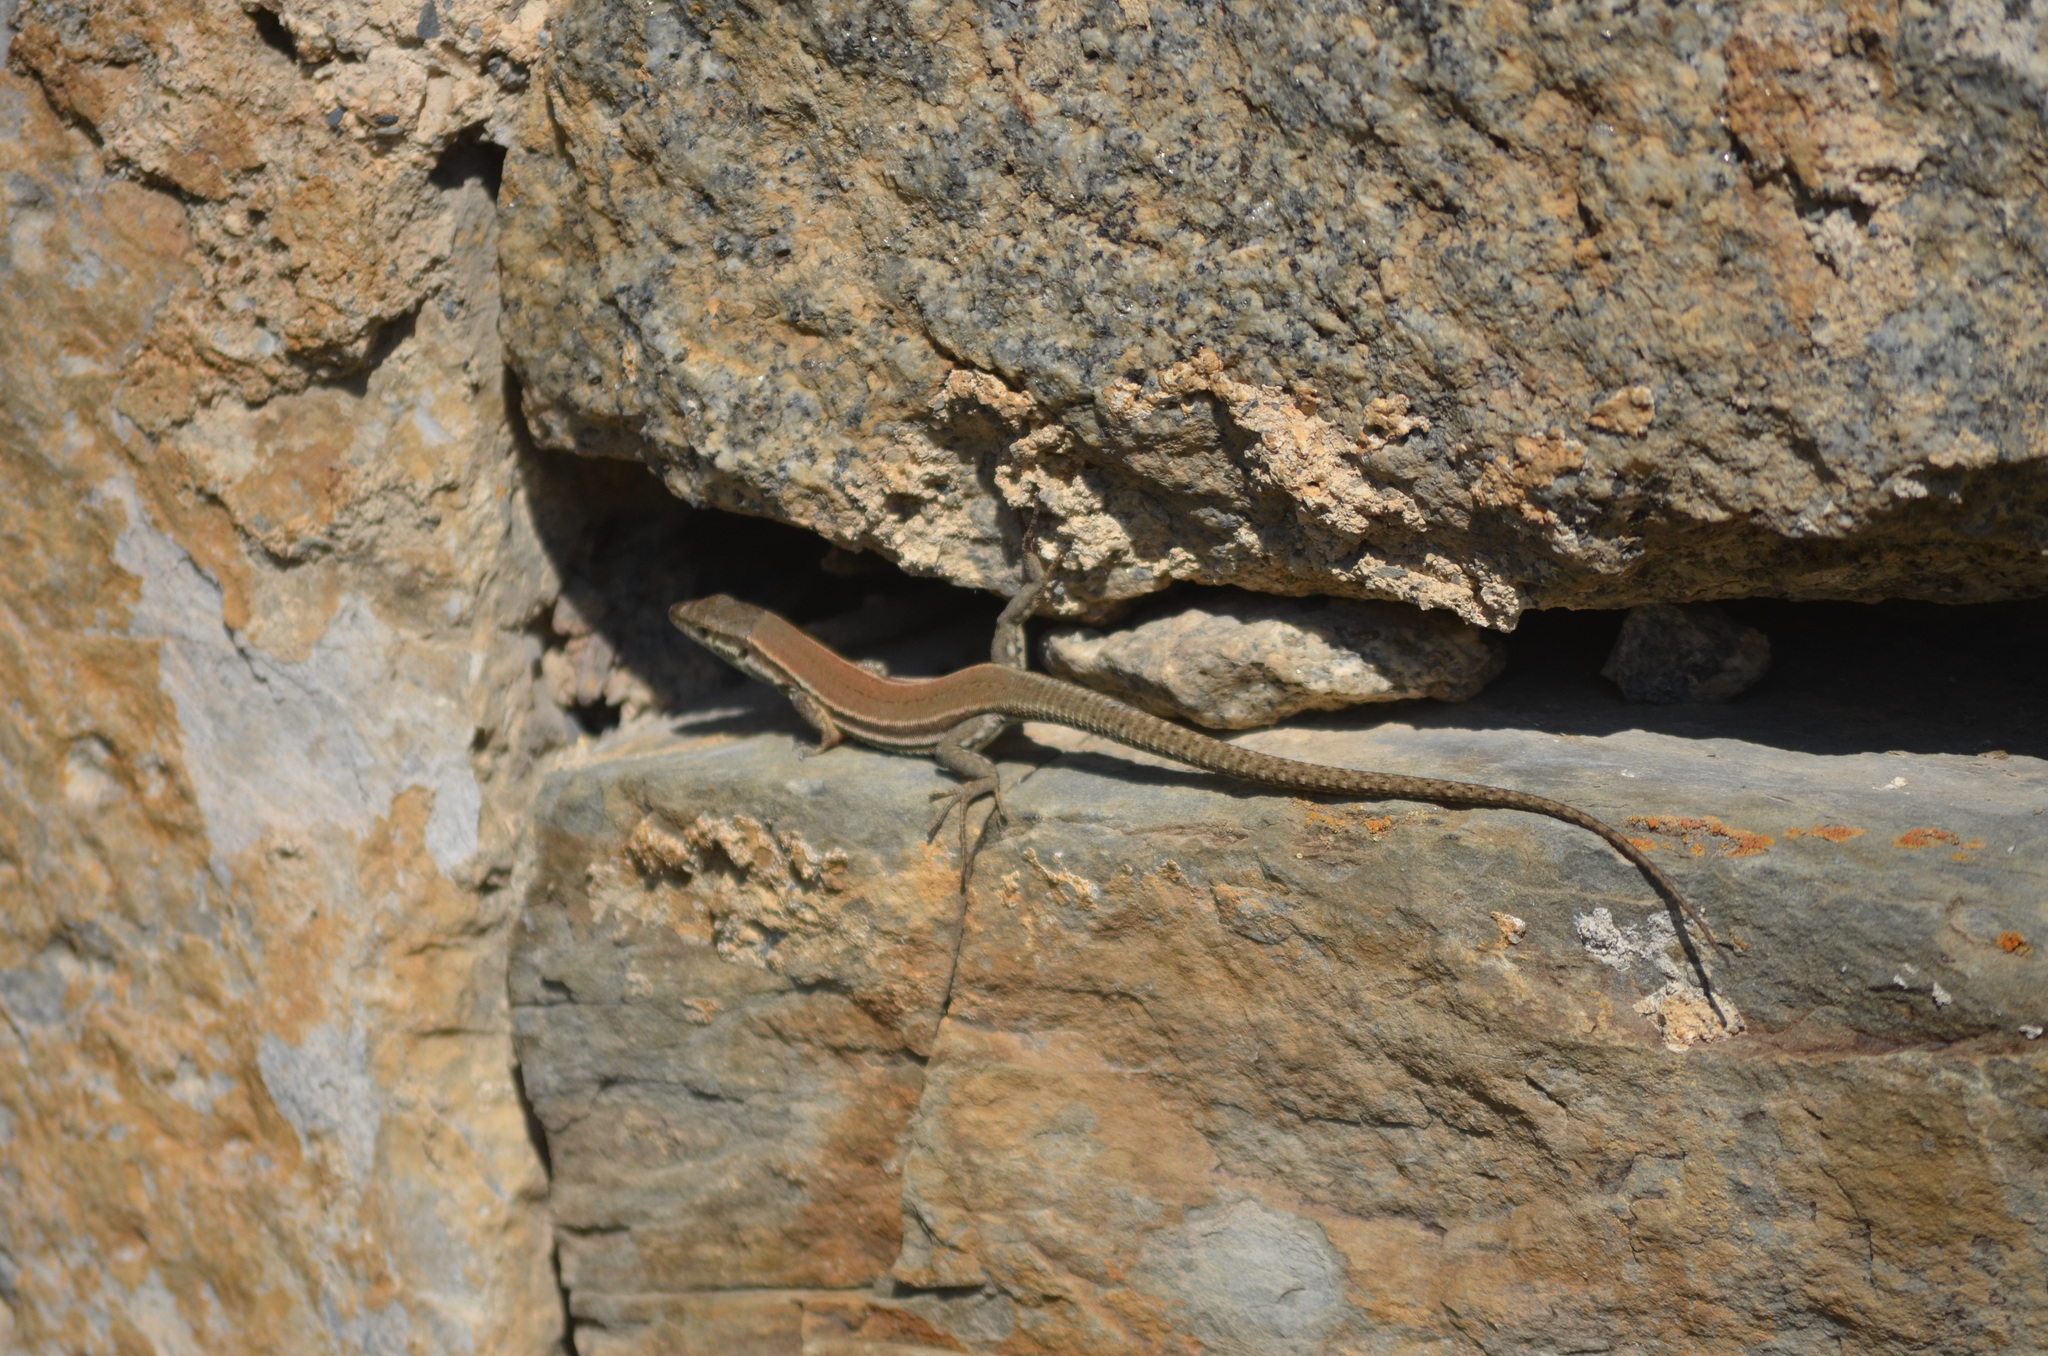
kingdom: Animalia
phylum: Chordata
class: Squamata
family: Lacertidae
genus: Podarcis
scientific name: Podarcis muralis
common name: Common wall lizard
